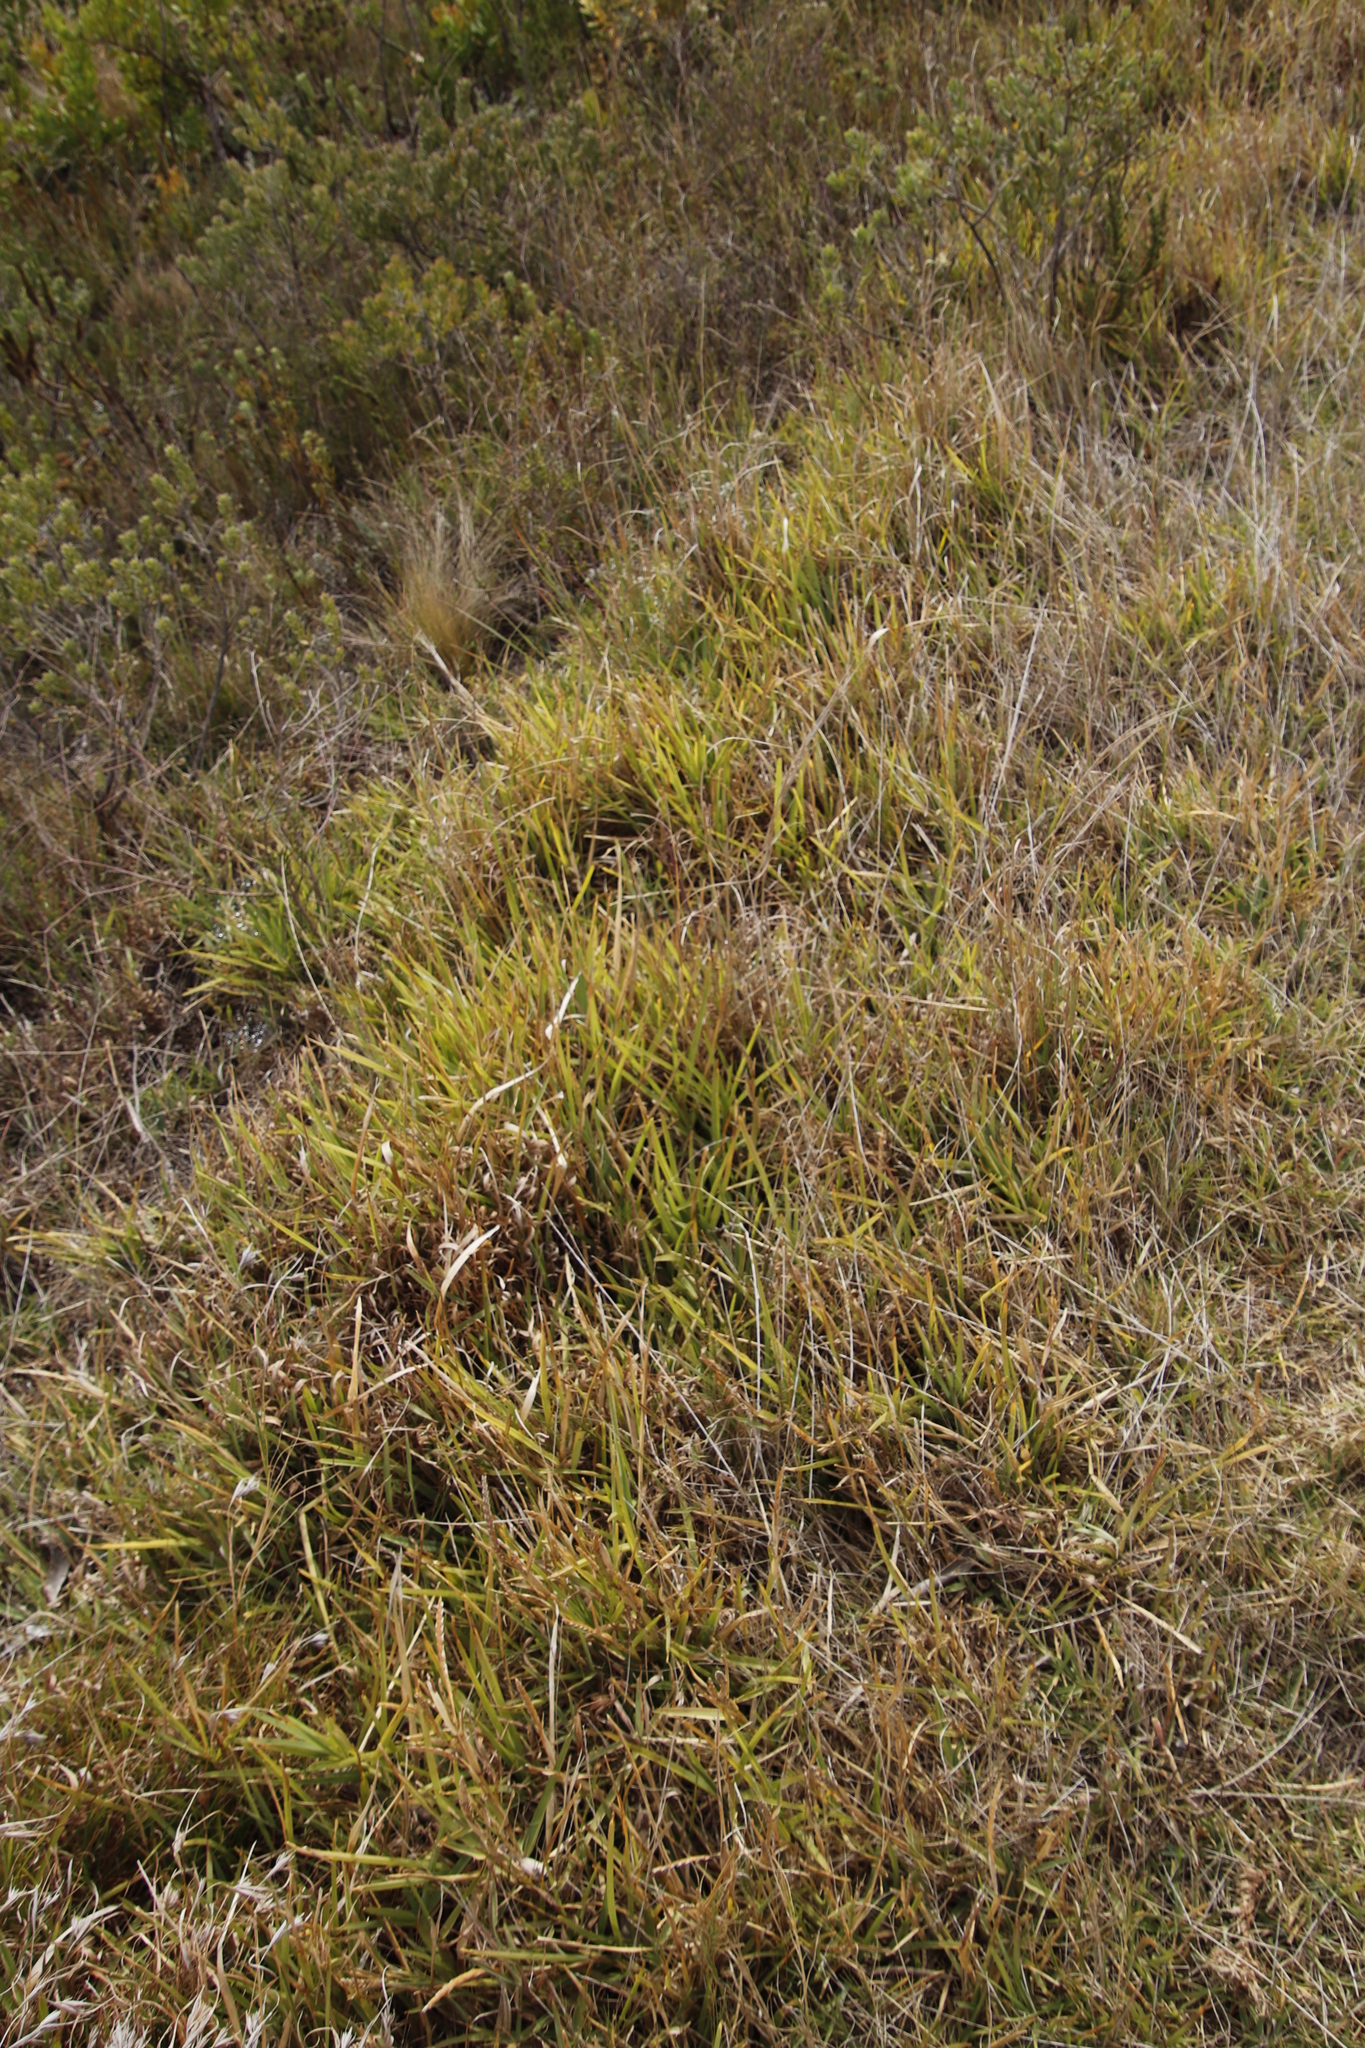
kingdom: Plantae
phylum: Tracheophyta
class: Liliopsida
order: Poales
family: Poaceae
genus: Stenotaphrum
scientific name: Stenotaphrum secundatum
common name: St. augustine grass
